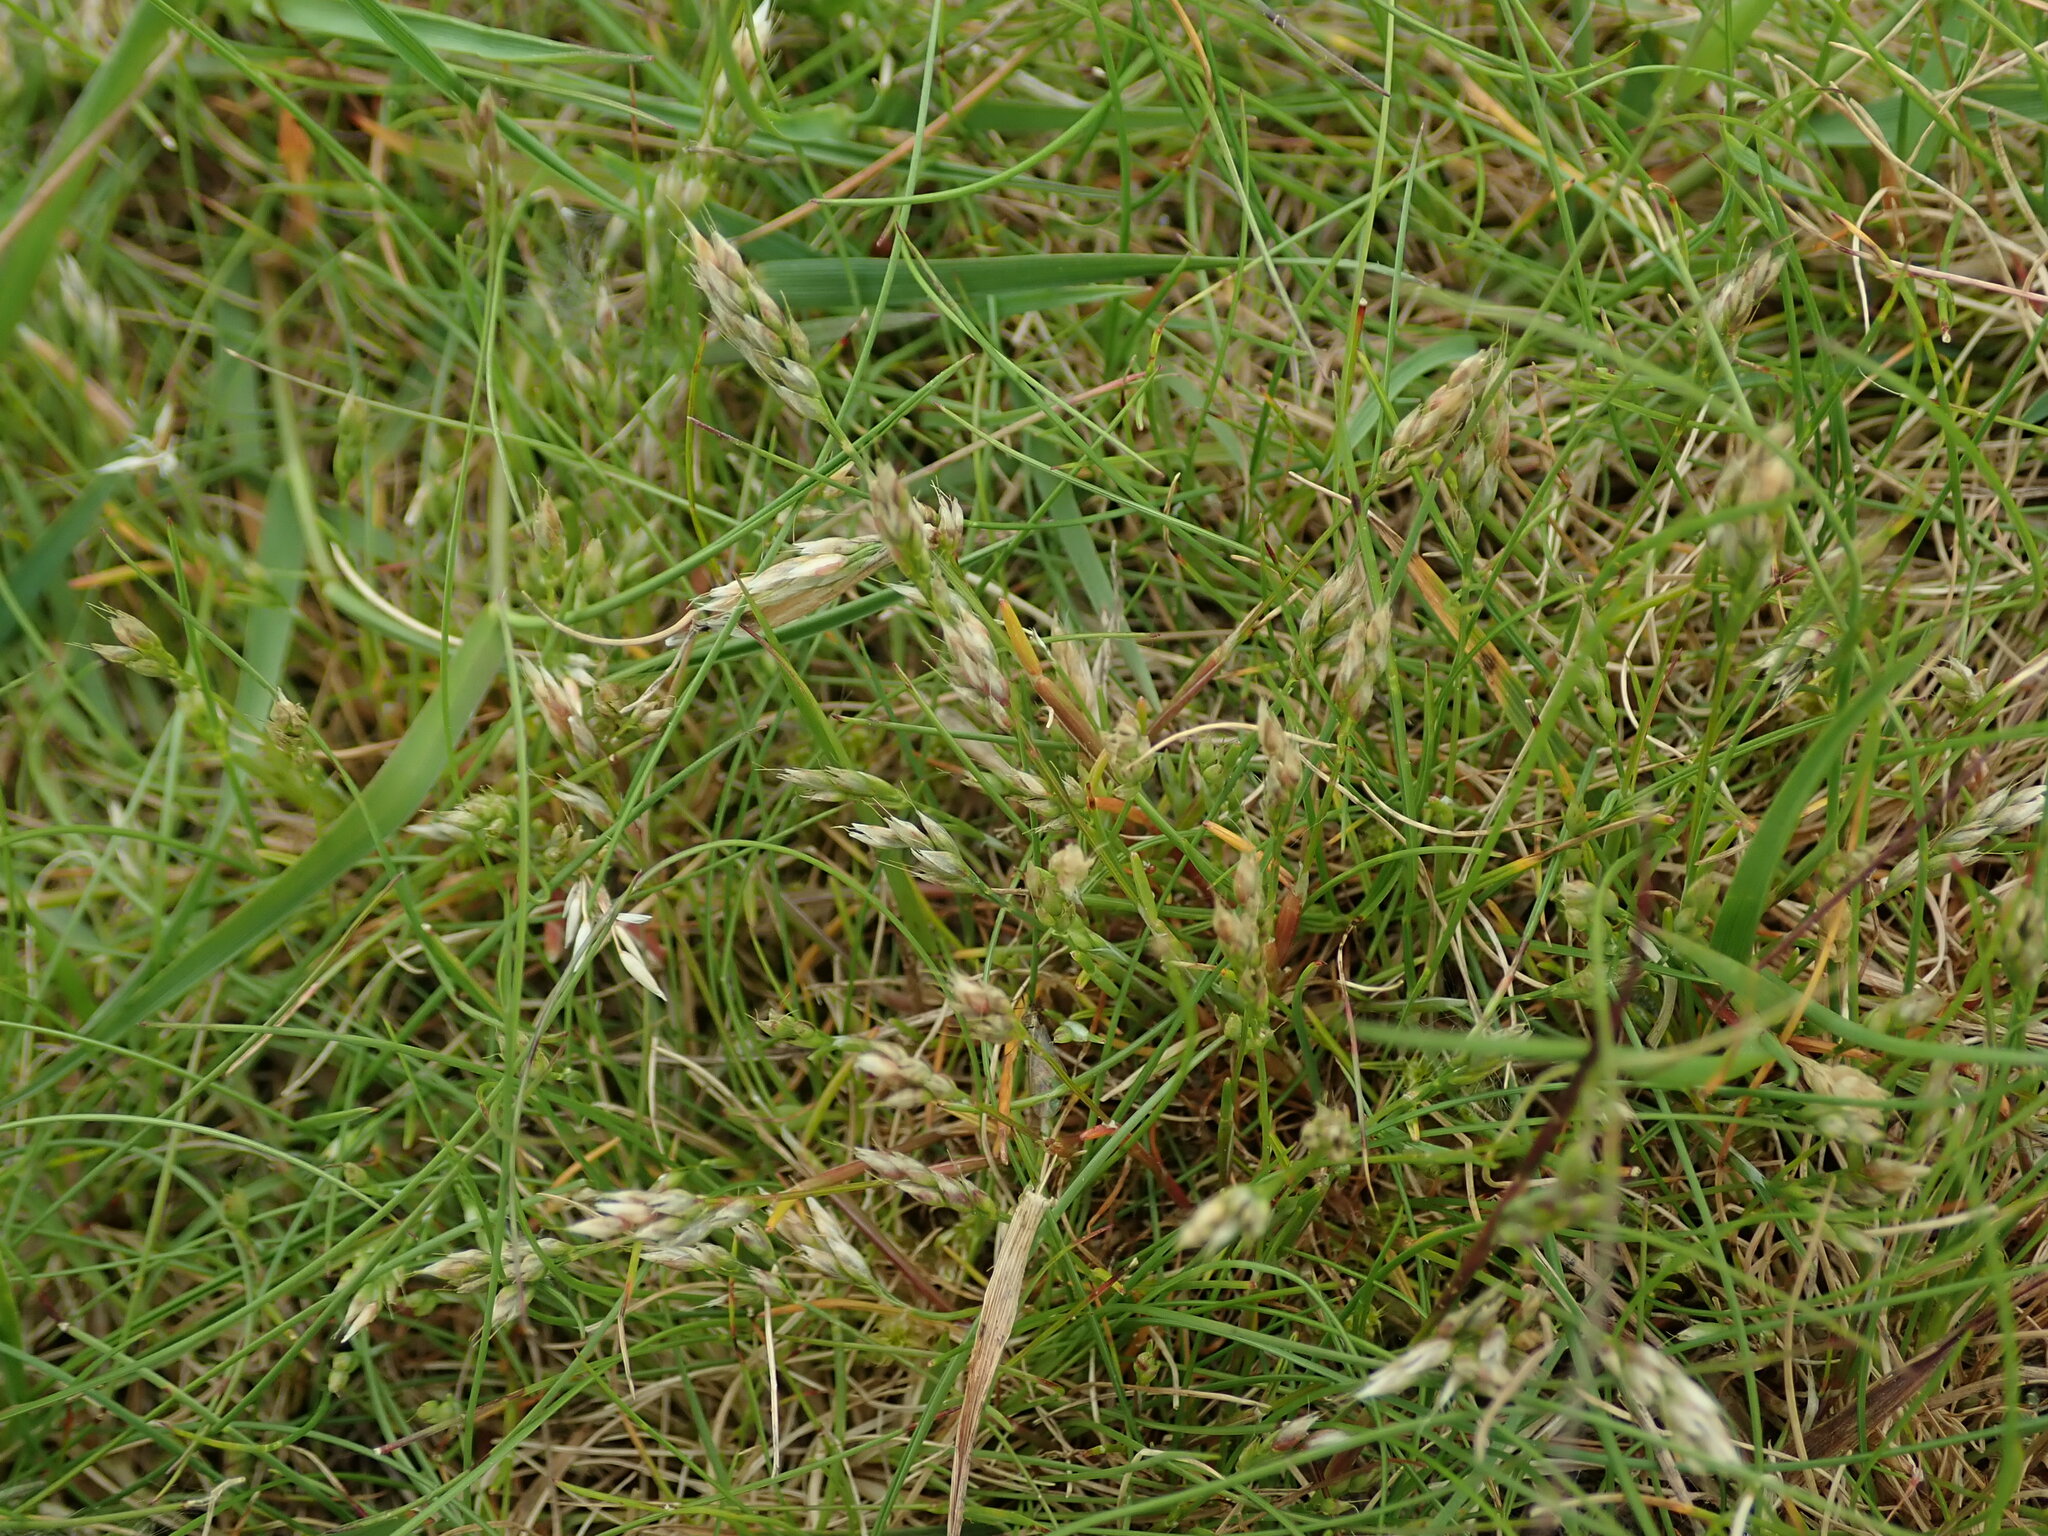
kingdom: Plantae
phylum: Tracheophyta
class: Liliopsida
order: Poales
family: Poaceae
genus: Aira
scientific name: Aira praecox
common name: Early hair-grass
